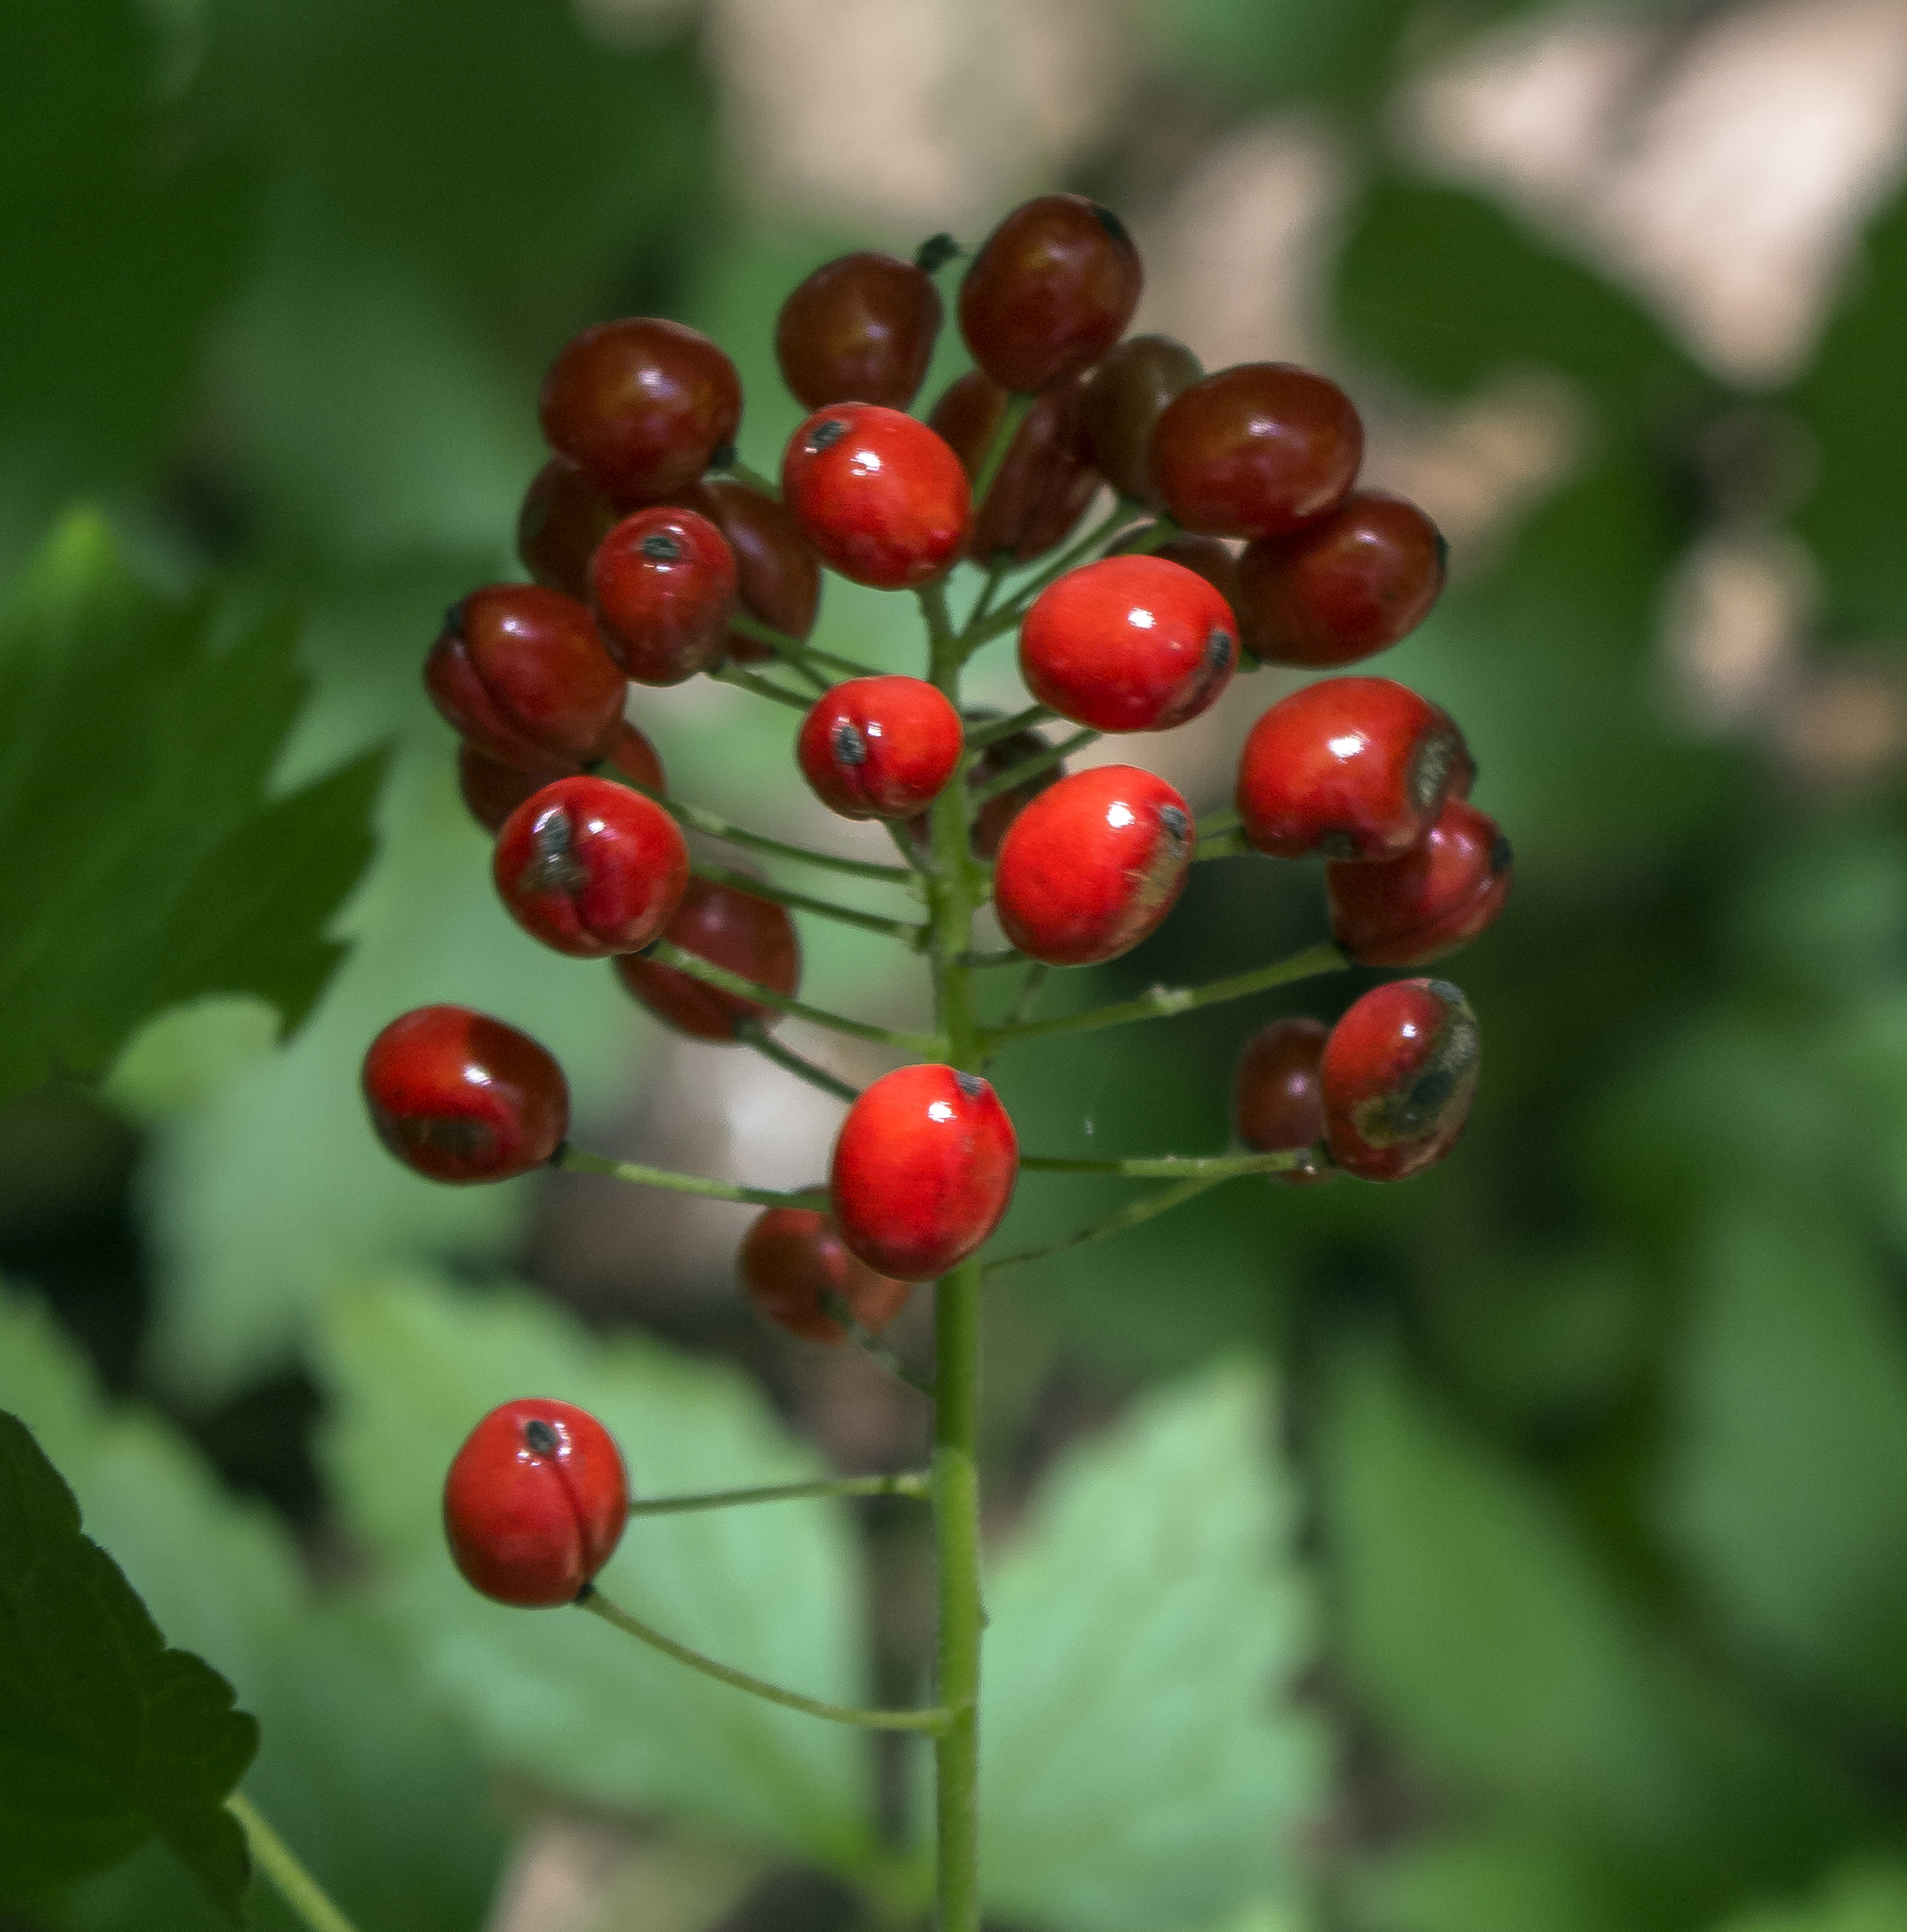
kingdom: Plantae
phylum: Tracheophyta
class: Magnoliopsida
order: Ranunculales
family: Ranunculaceae
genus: Actaea
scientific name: Actaea rubra
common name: Red baneberry
